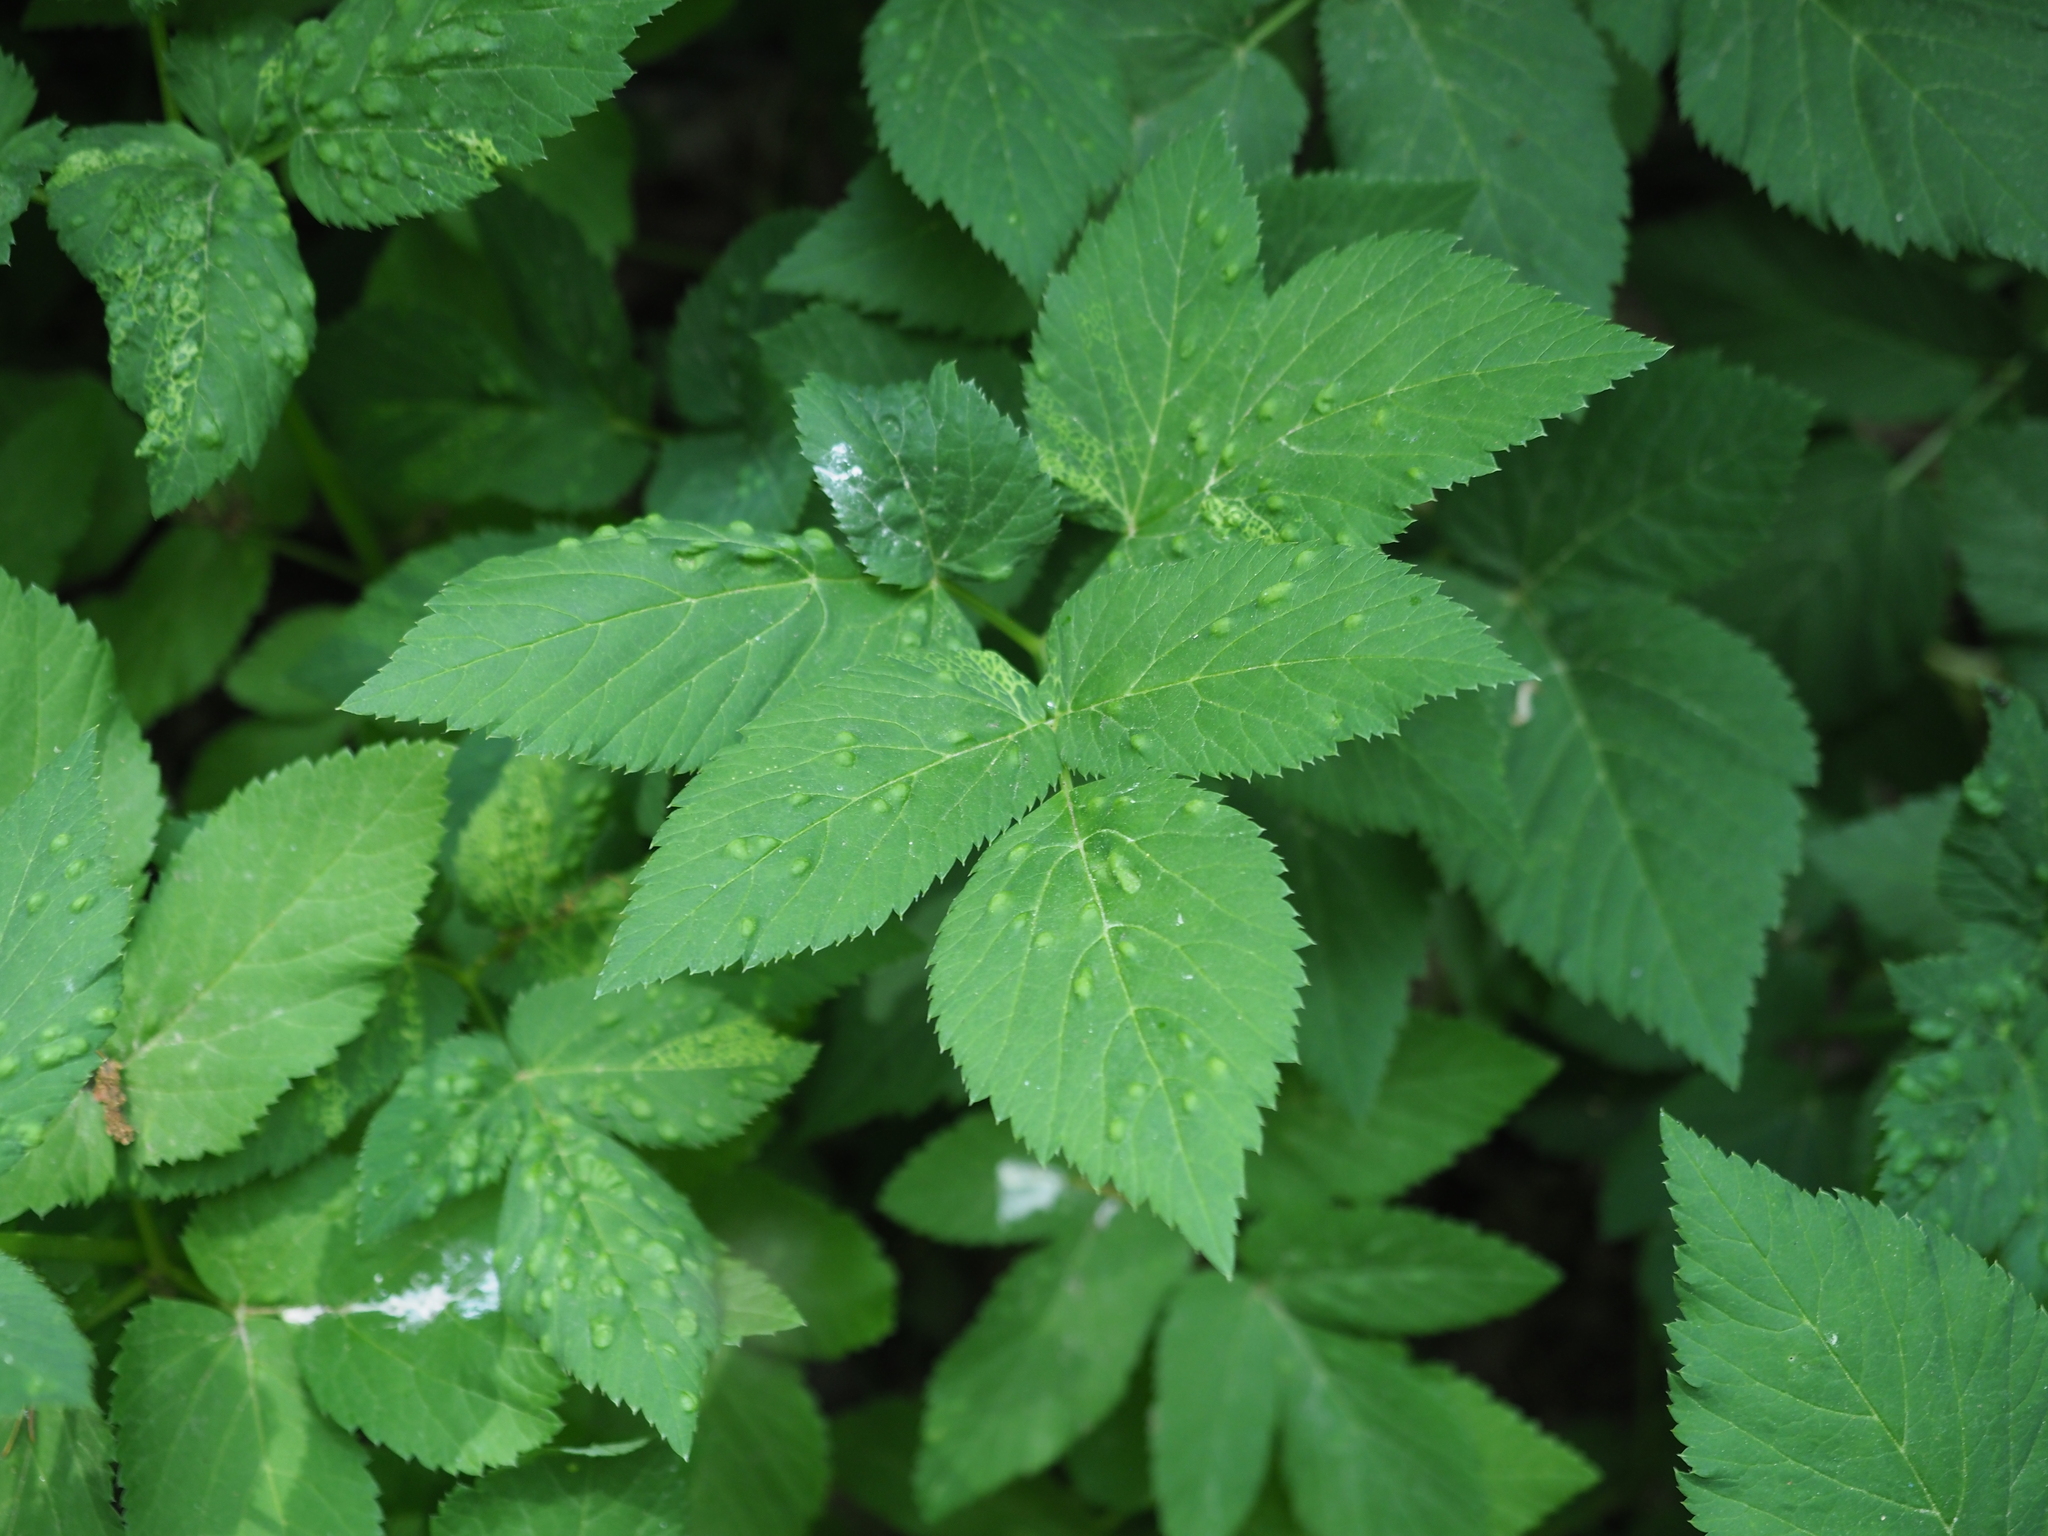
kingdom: Plantae
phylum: Tracheophyta
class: Magnoliopsida
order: Apiales
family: Apiaceae
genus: Aegopodium
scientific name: Aegopodium podagraria
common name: Ground-elder
